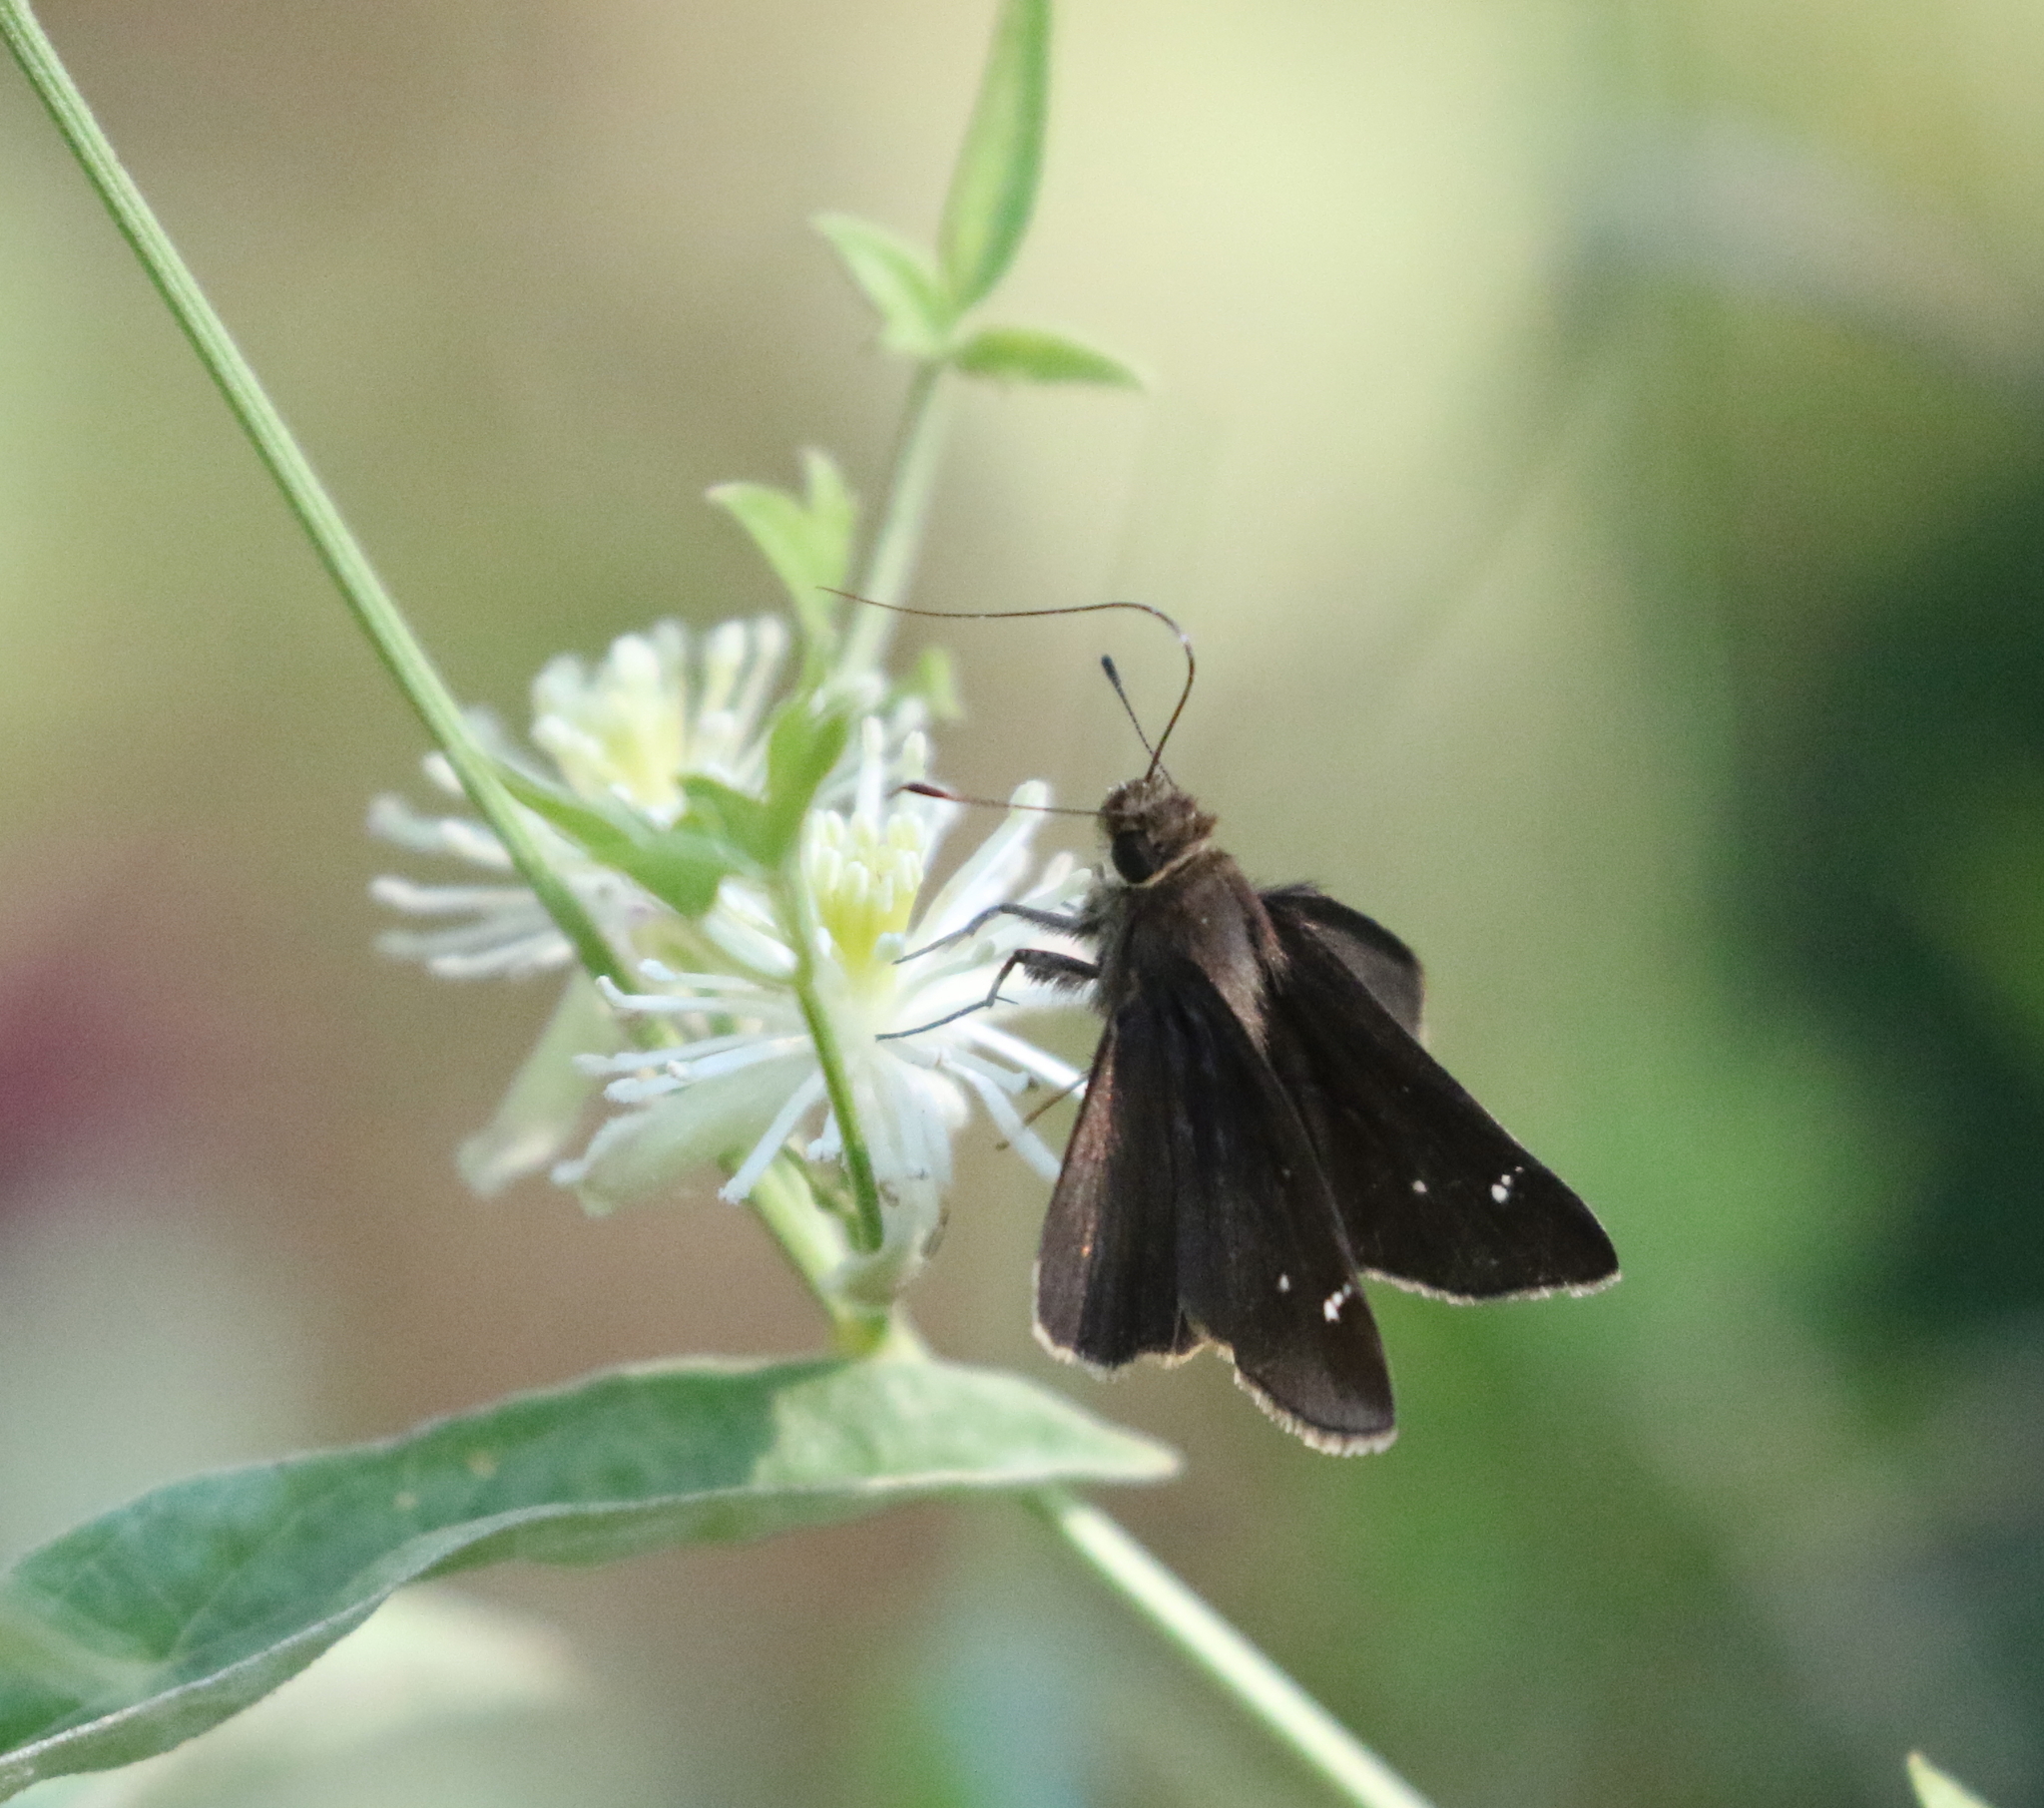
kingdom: Animalia
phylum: Arthropoda
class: Insecta
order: Lepidoptera
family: Hesperiidae
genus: Lerema
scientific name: Lerema accius
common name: Clouded skipper
